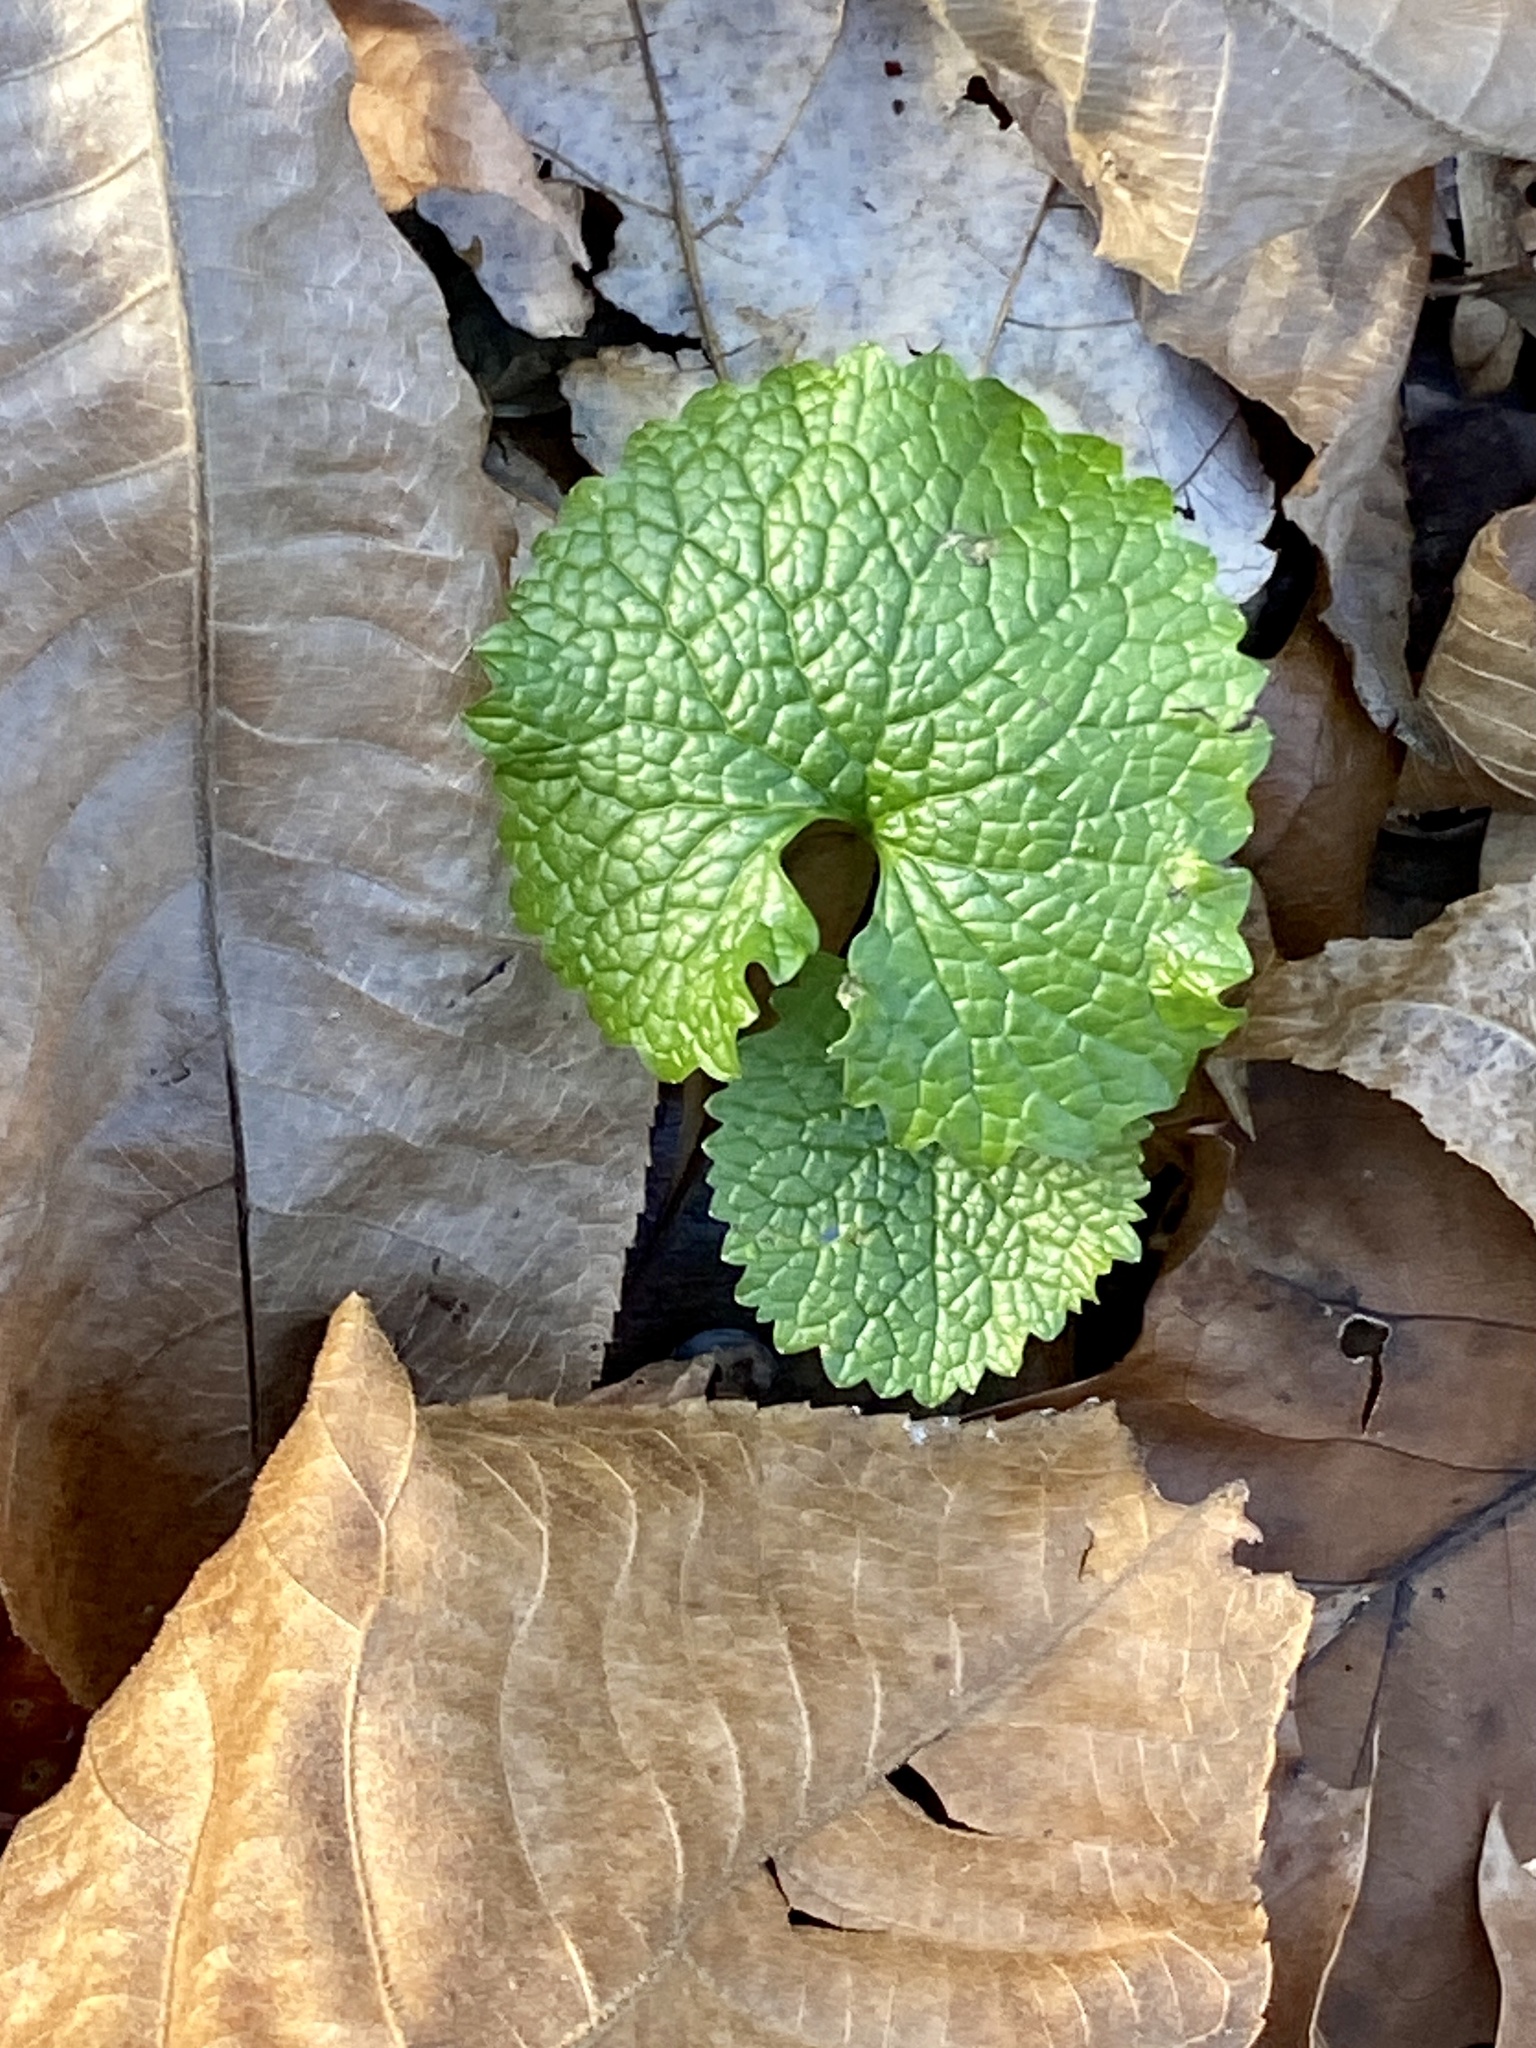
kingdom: Plantae
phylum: Tracheophyta
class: Magnoliopsida
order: Brassicales
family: Brassicaceae
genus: Alliaria
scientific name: Alliaria petiolata
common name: Garlic mustard
